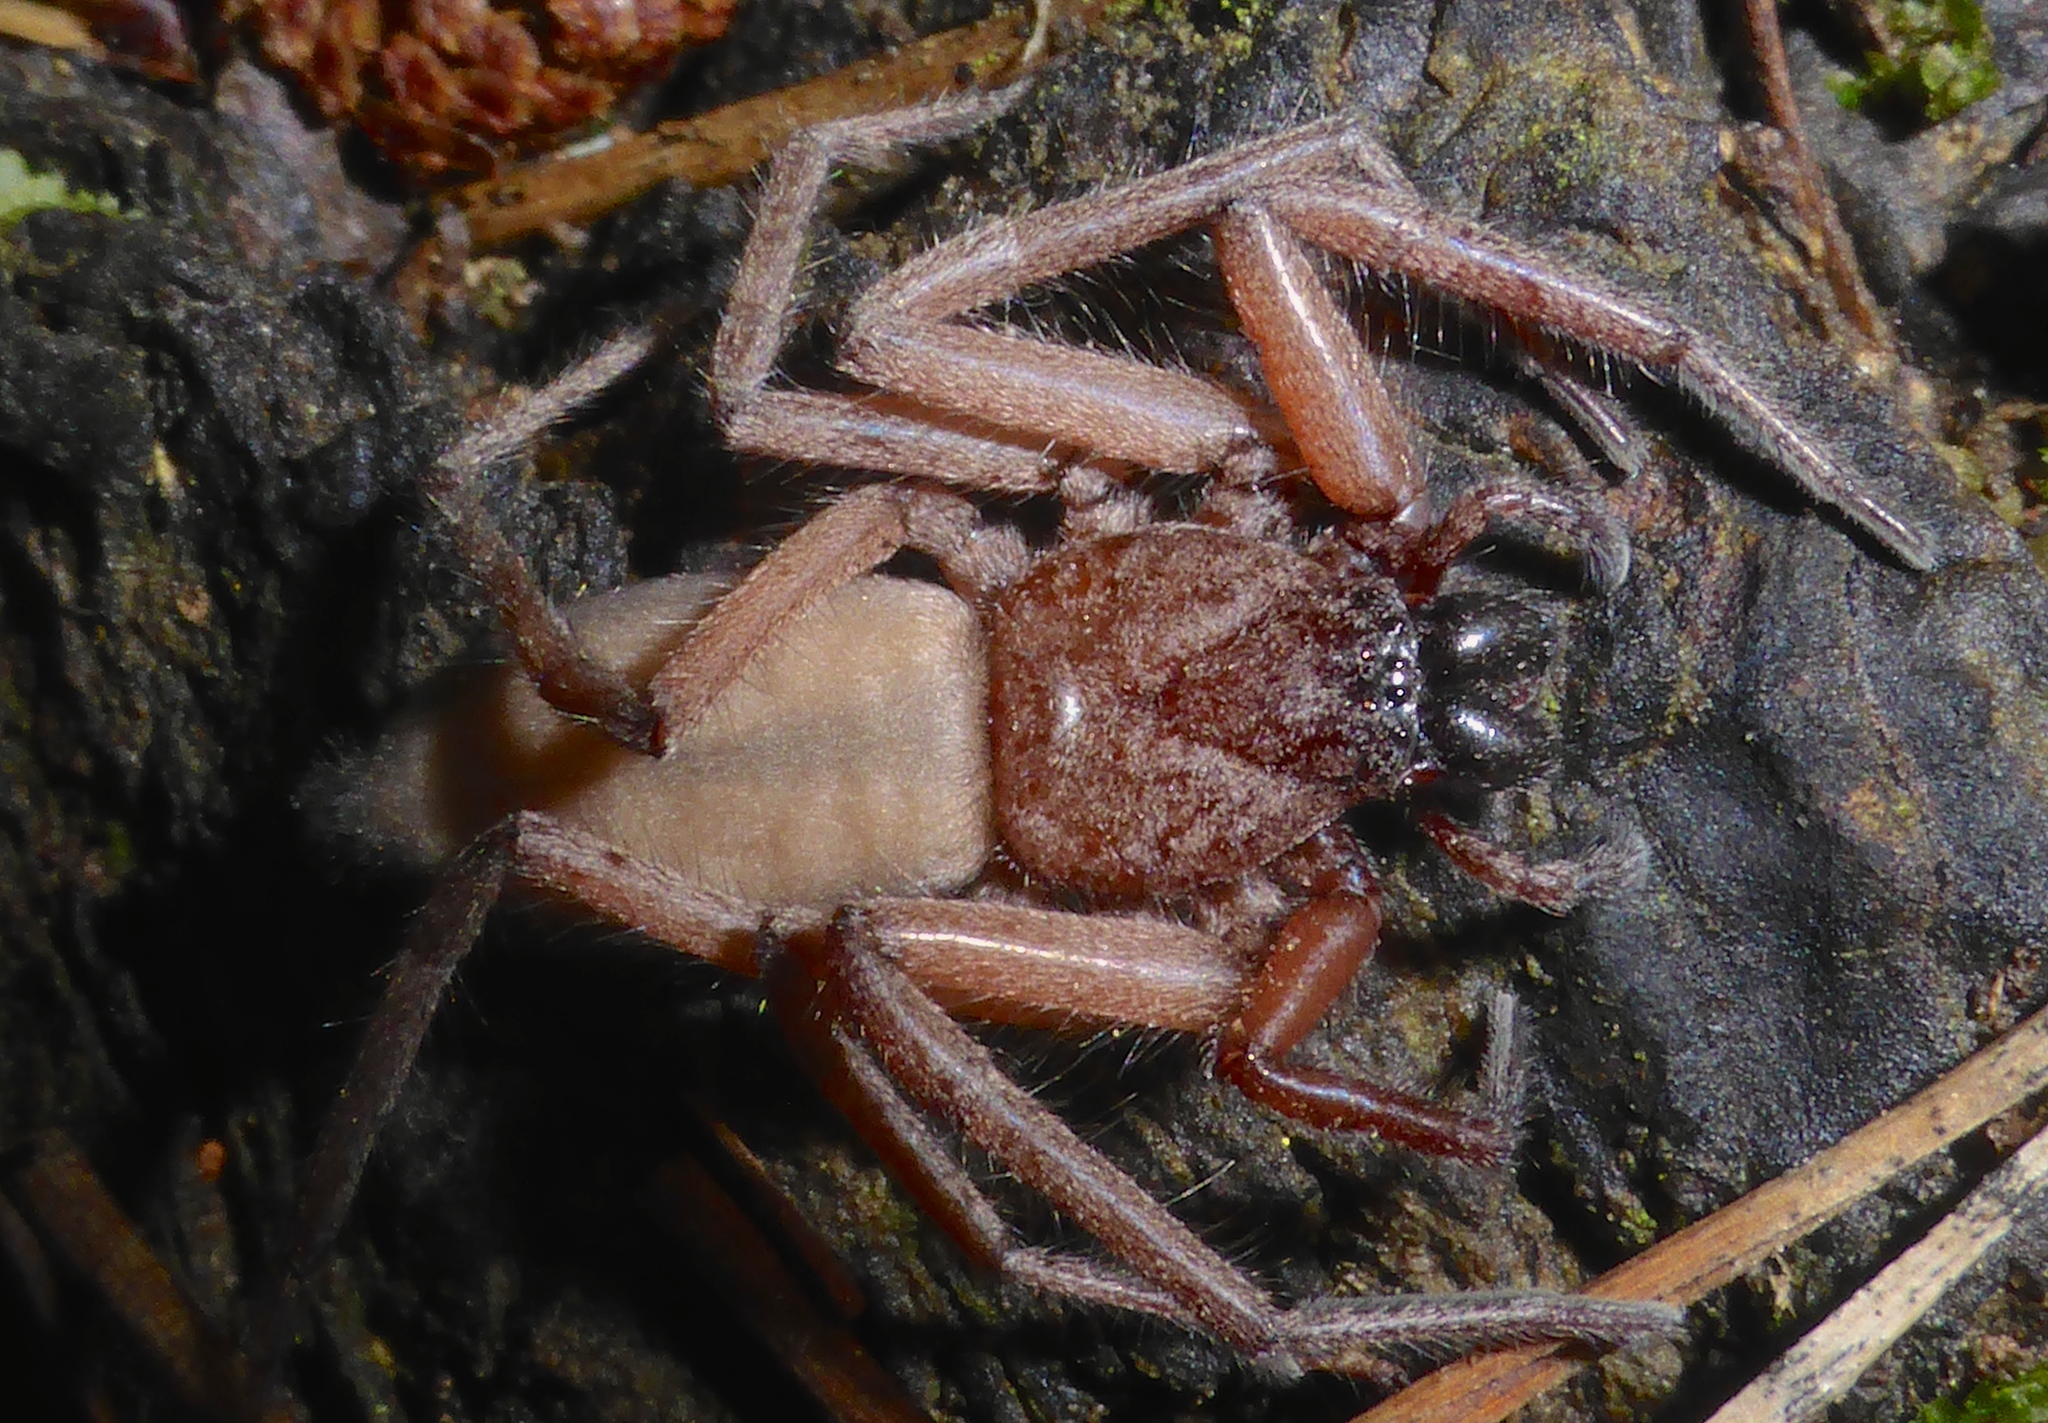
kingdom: Animalia
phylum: Arthropoda
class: Arachnida
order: Araneae
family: Trochanteriidae
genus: Hemicloea
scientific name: Hemicloea rogenhoferi
